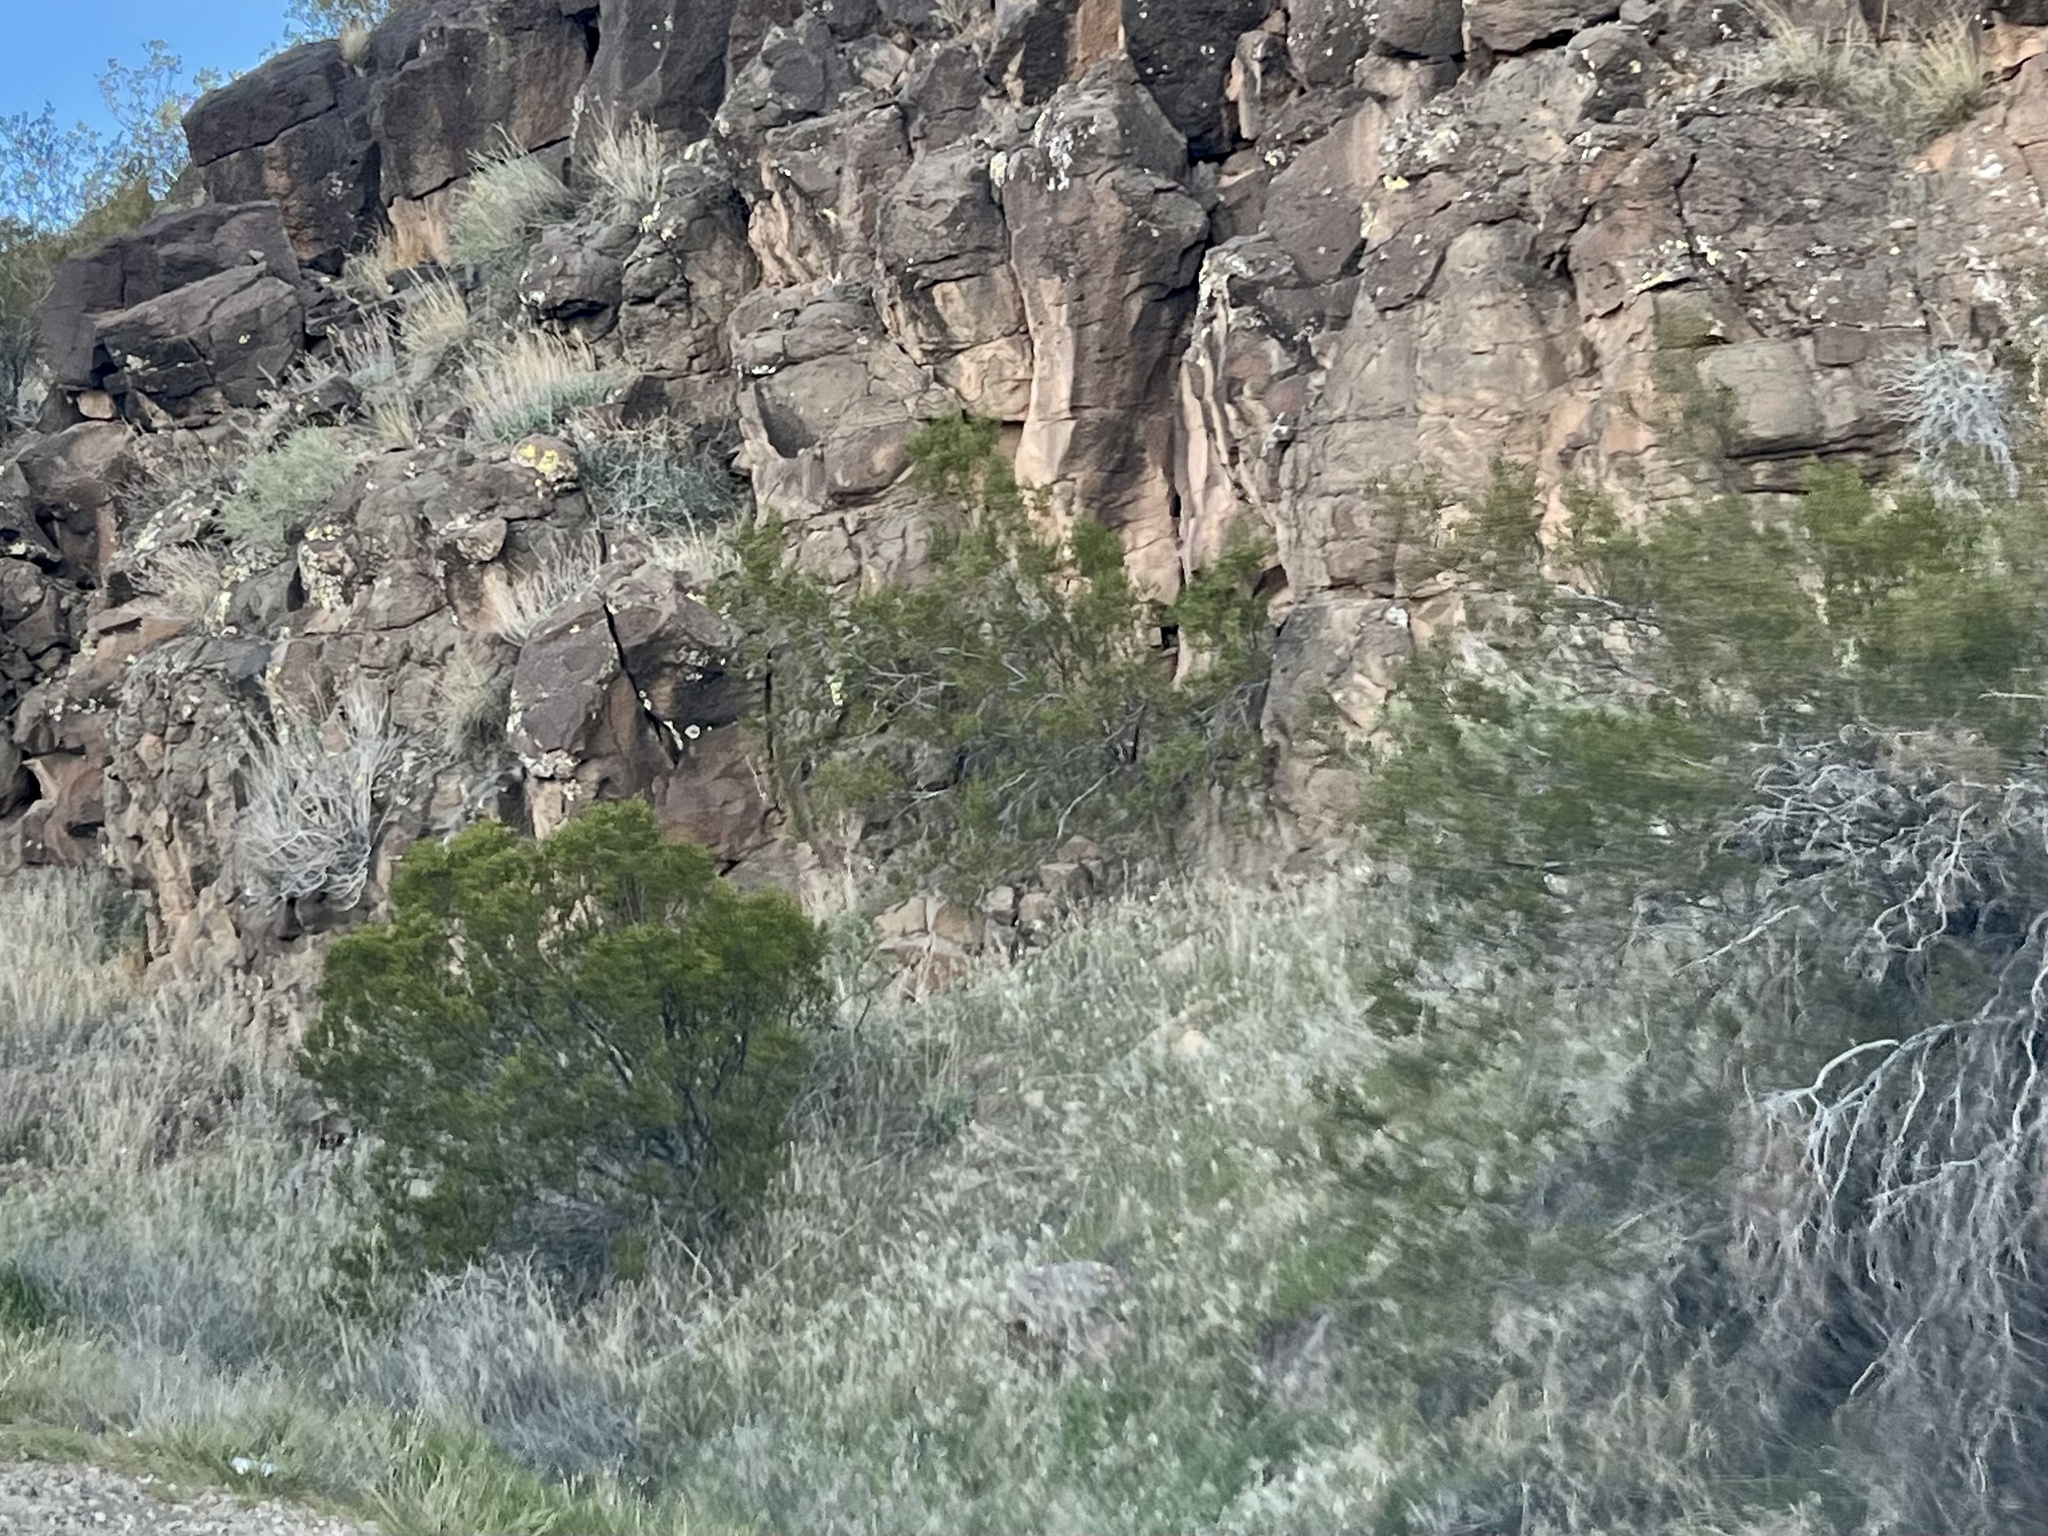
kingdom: Plantae
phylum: Tracheophyta
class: Magnoliopsida
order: Zygophyllales
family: Zygophyllaceae
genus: Larrea
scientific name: Larrea tridentata
